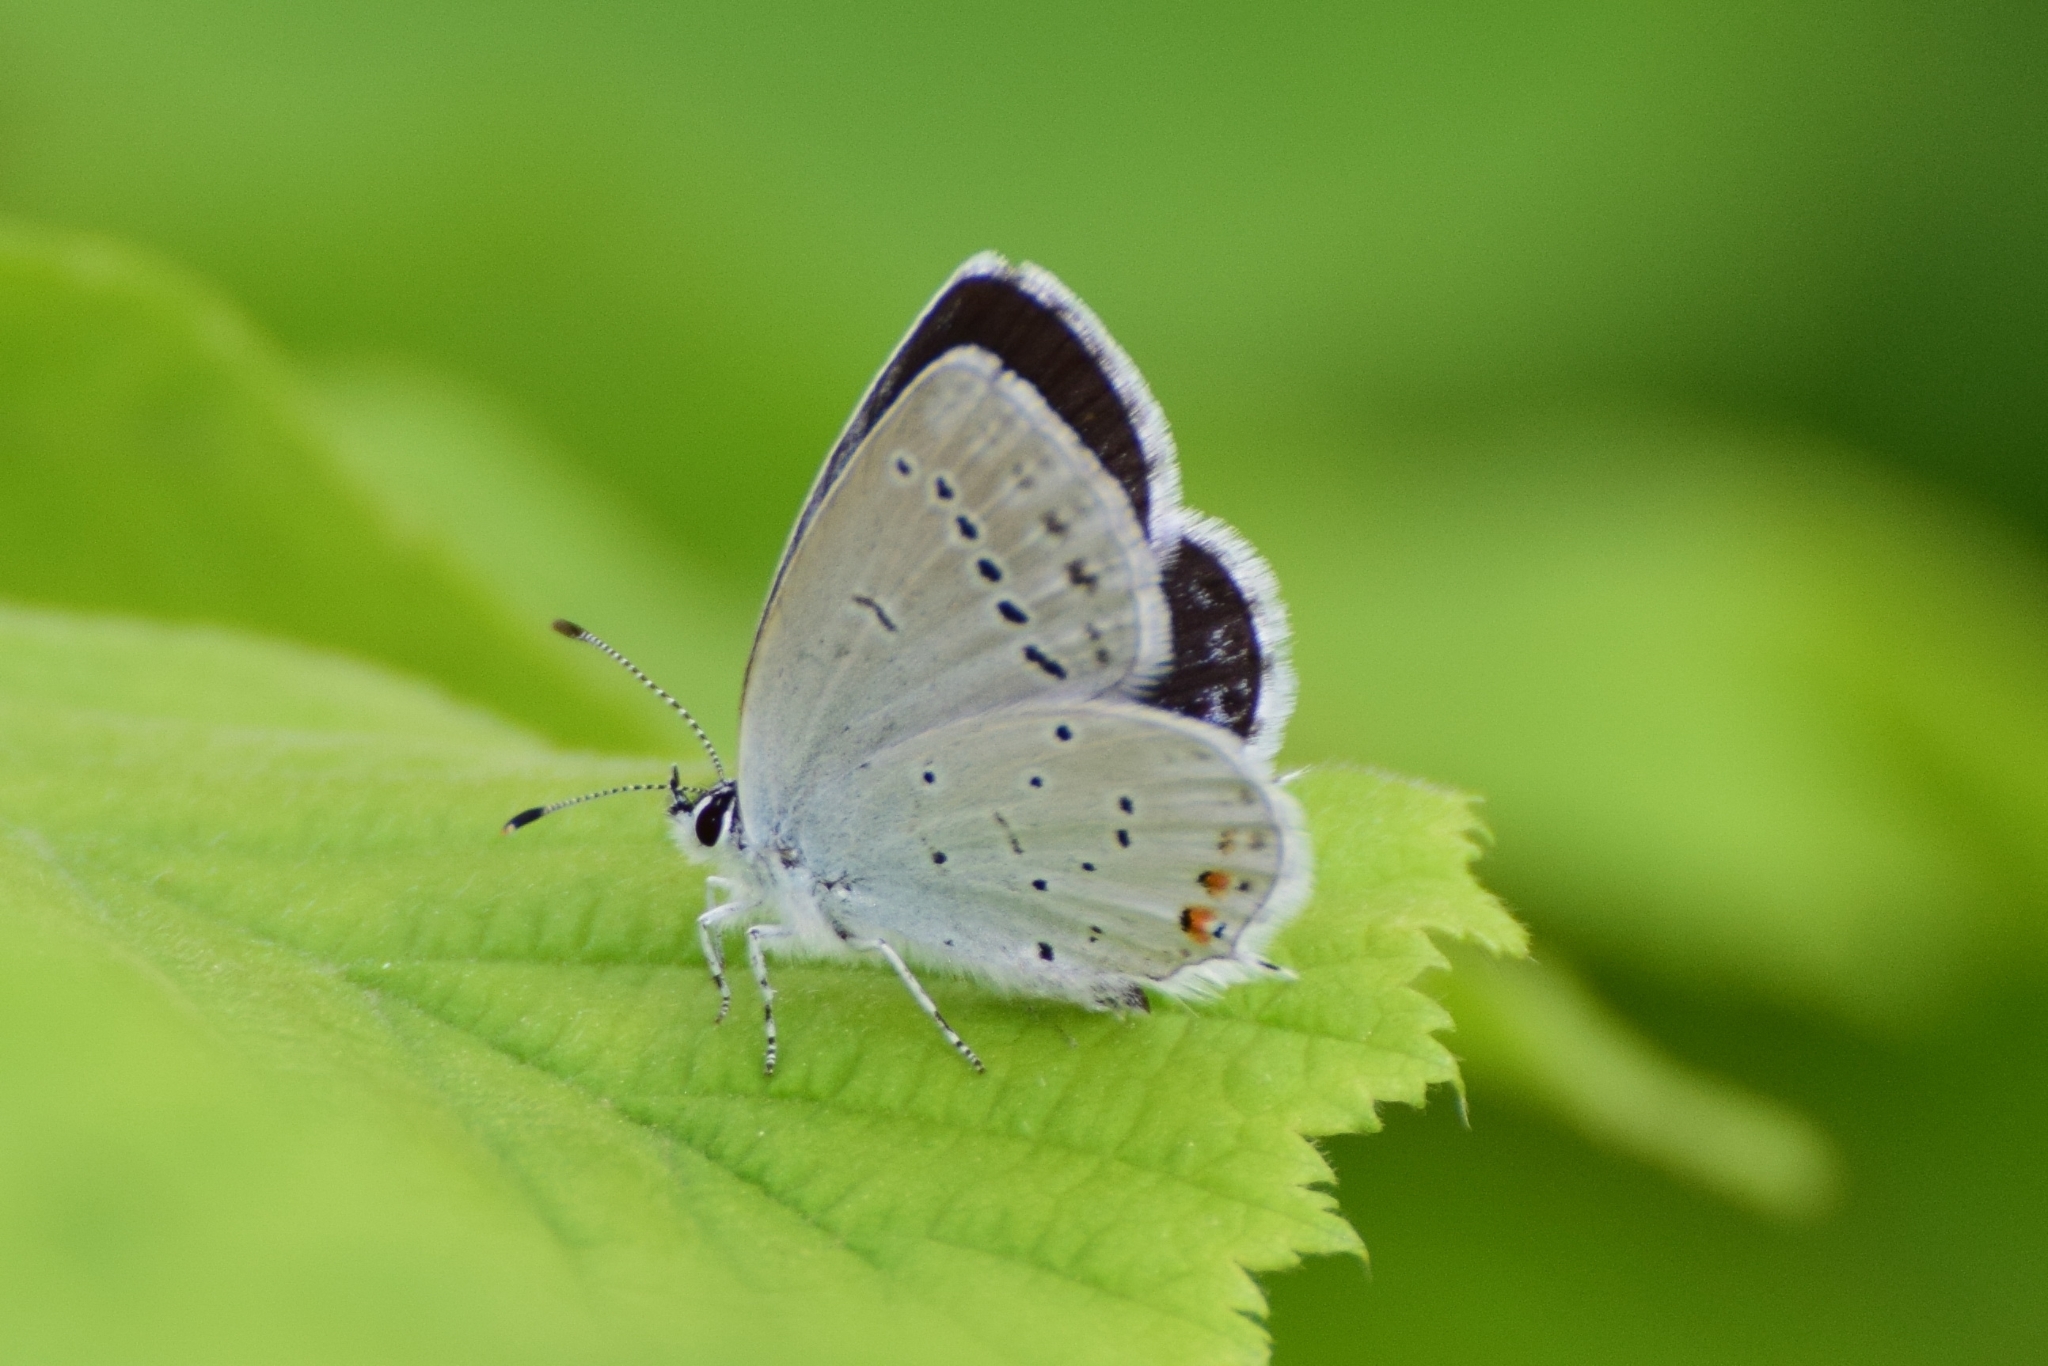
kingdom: Animalia
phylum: Arthropoda
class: Insecta
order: Lepidoptera
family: Lycaenidae
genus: Elkalyce
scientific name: Elkalyce argiades
